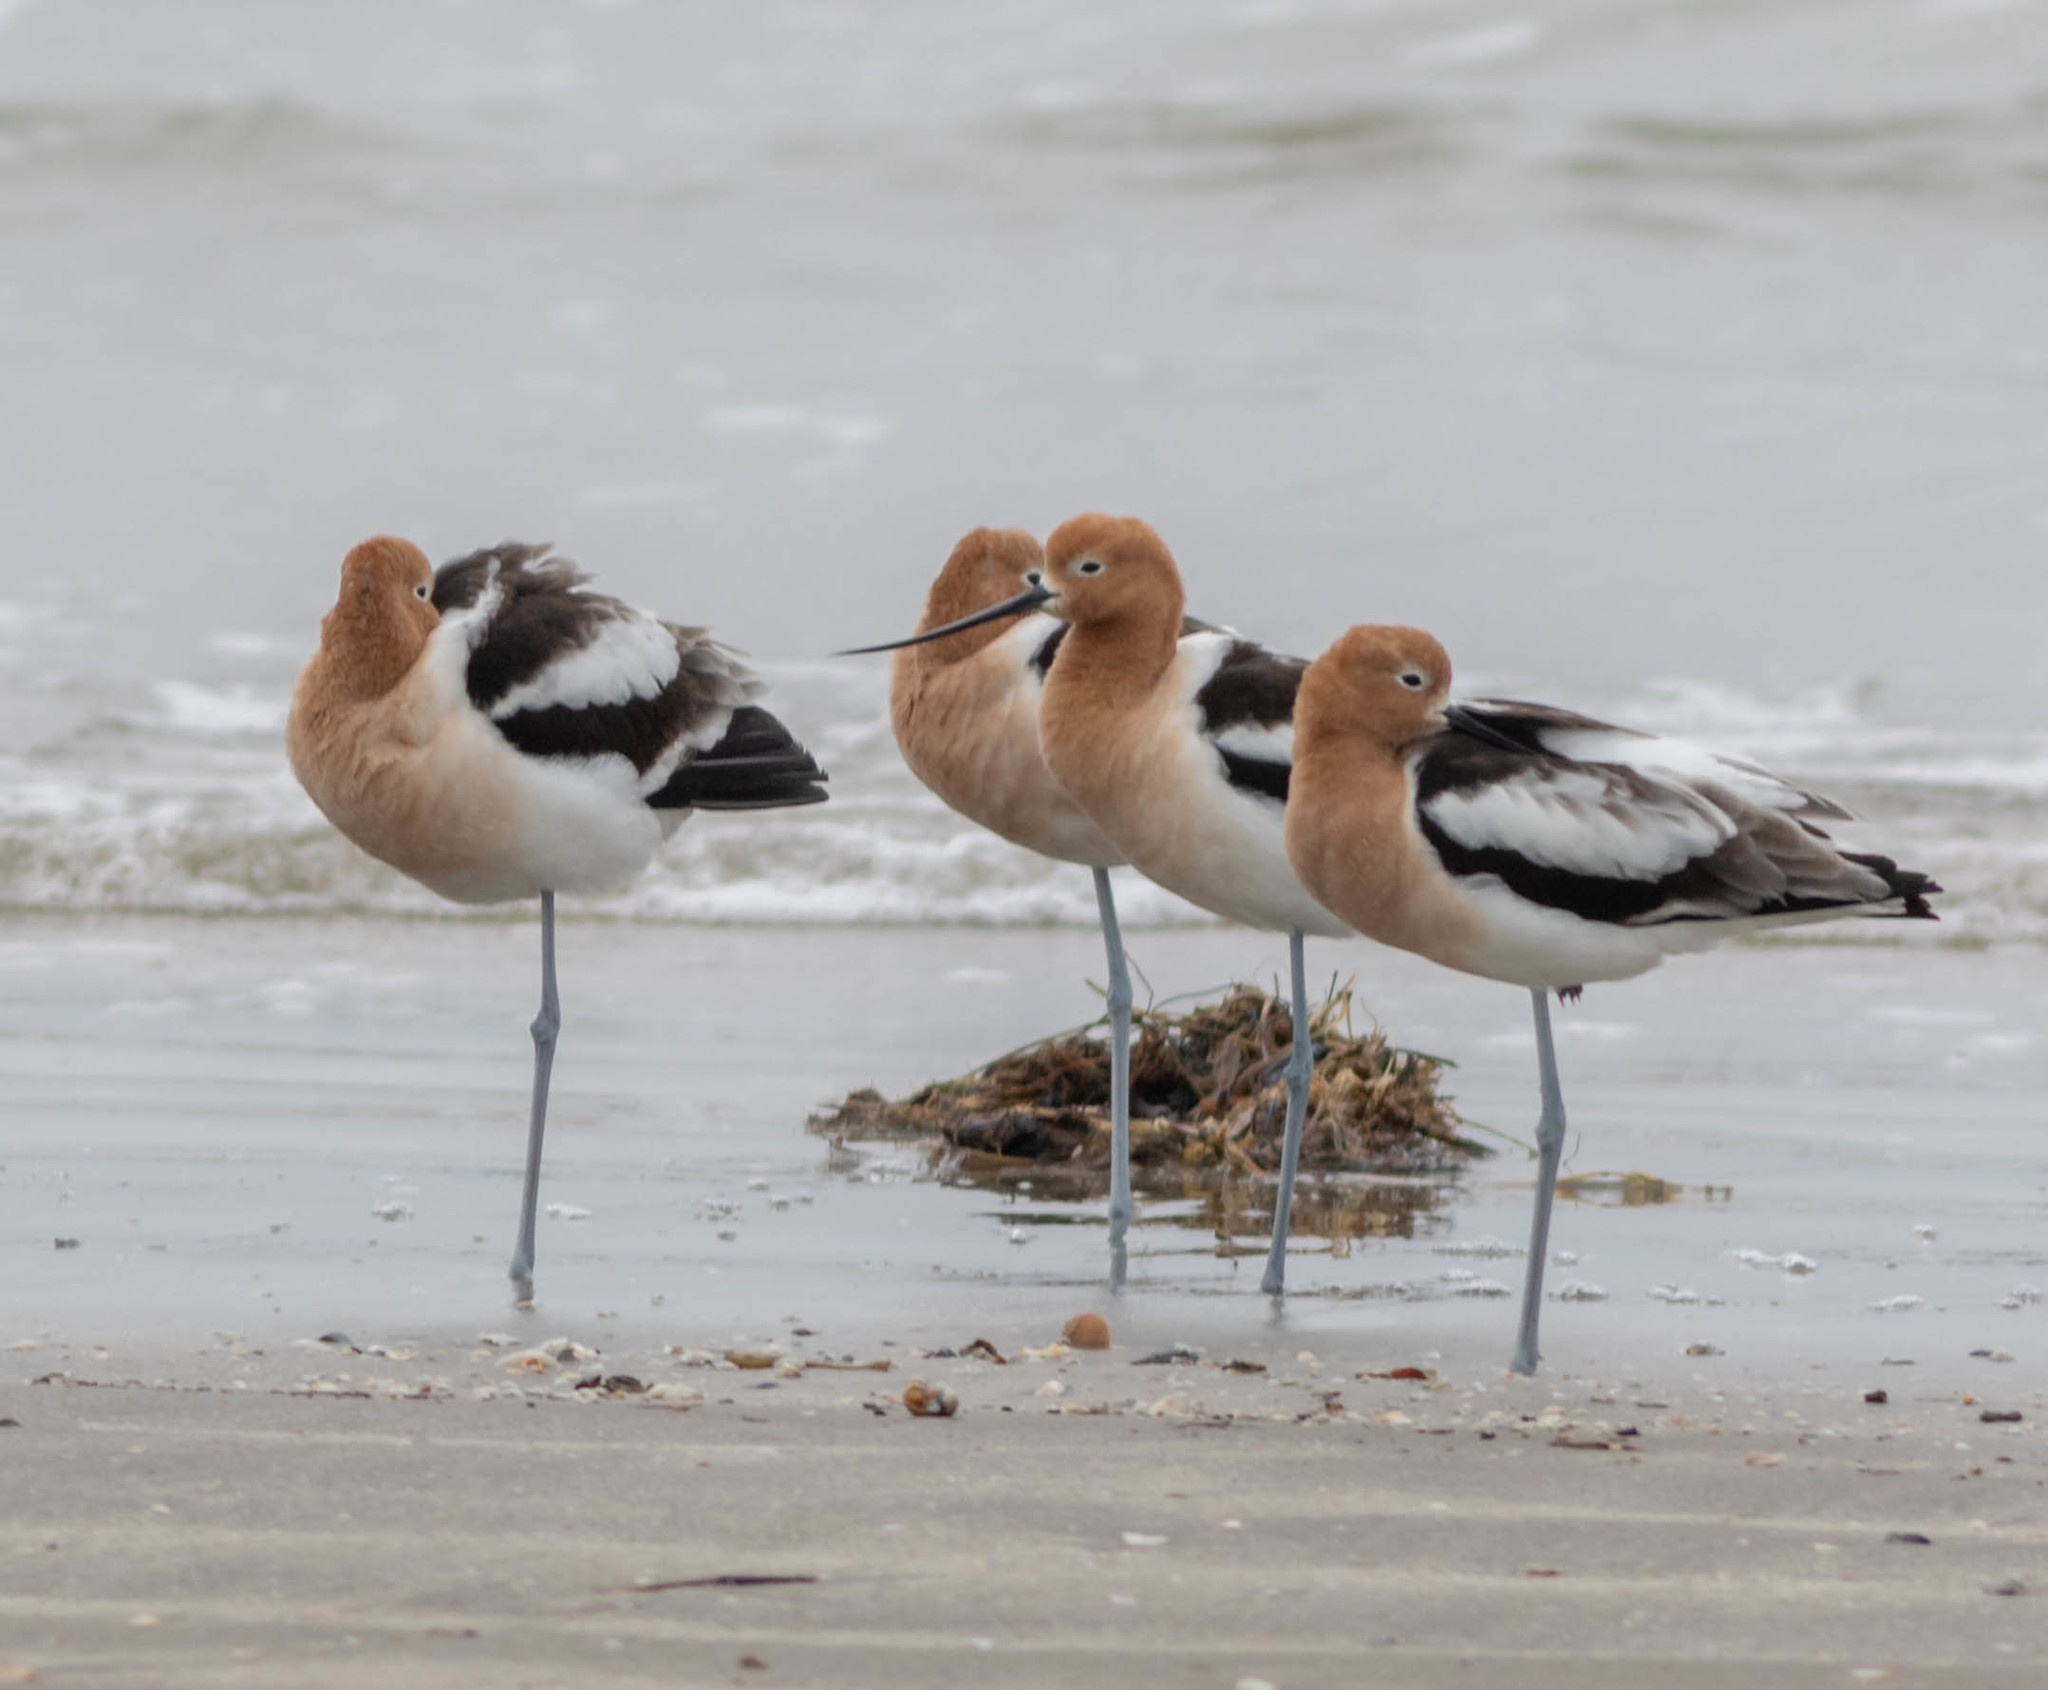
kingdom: Animalia
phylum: Chordata
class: Aves
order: Charadriiformes
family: Recurvirostridae
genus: Recurvirostra
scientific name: Recurvirostra americana
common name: American avocet
